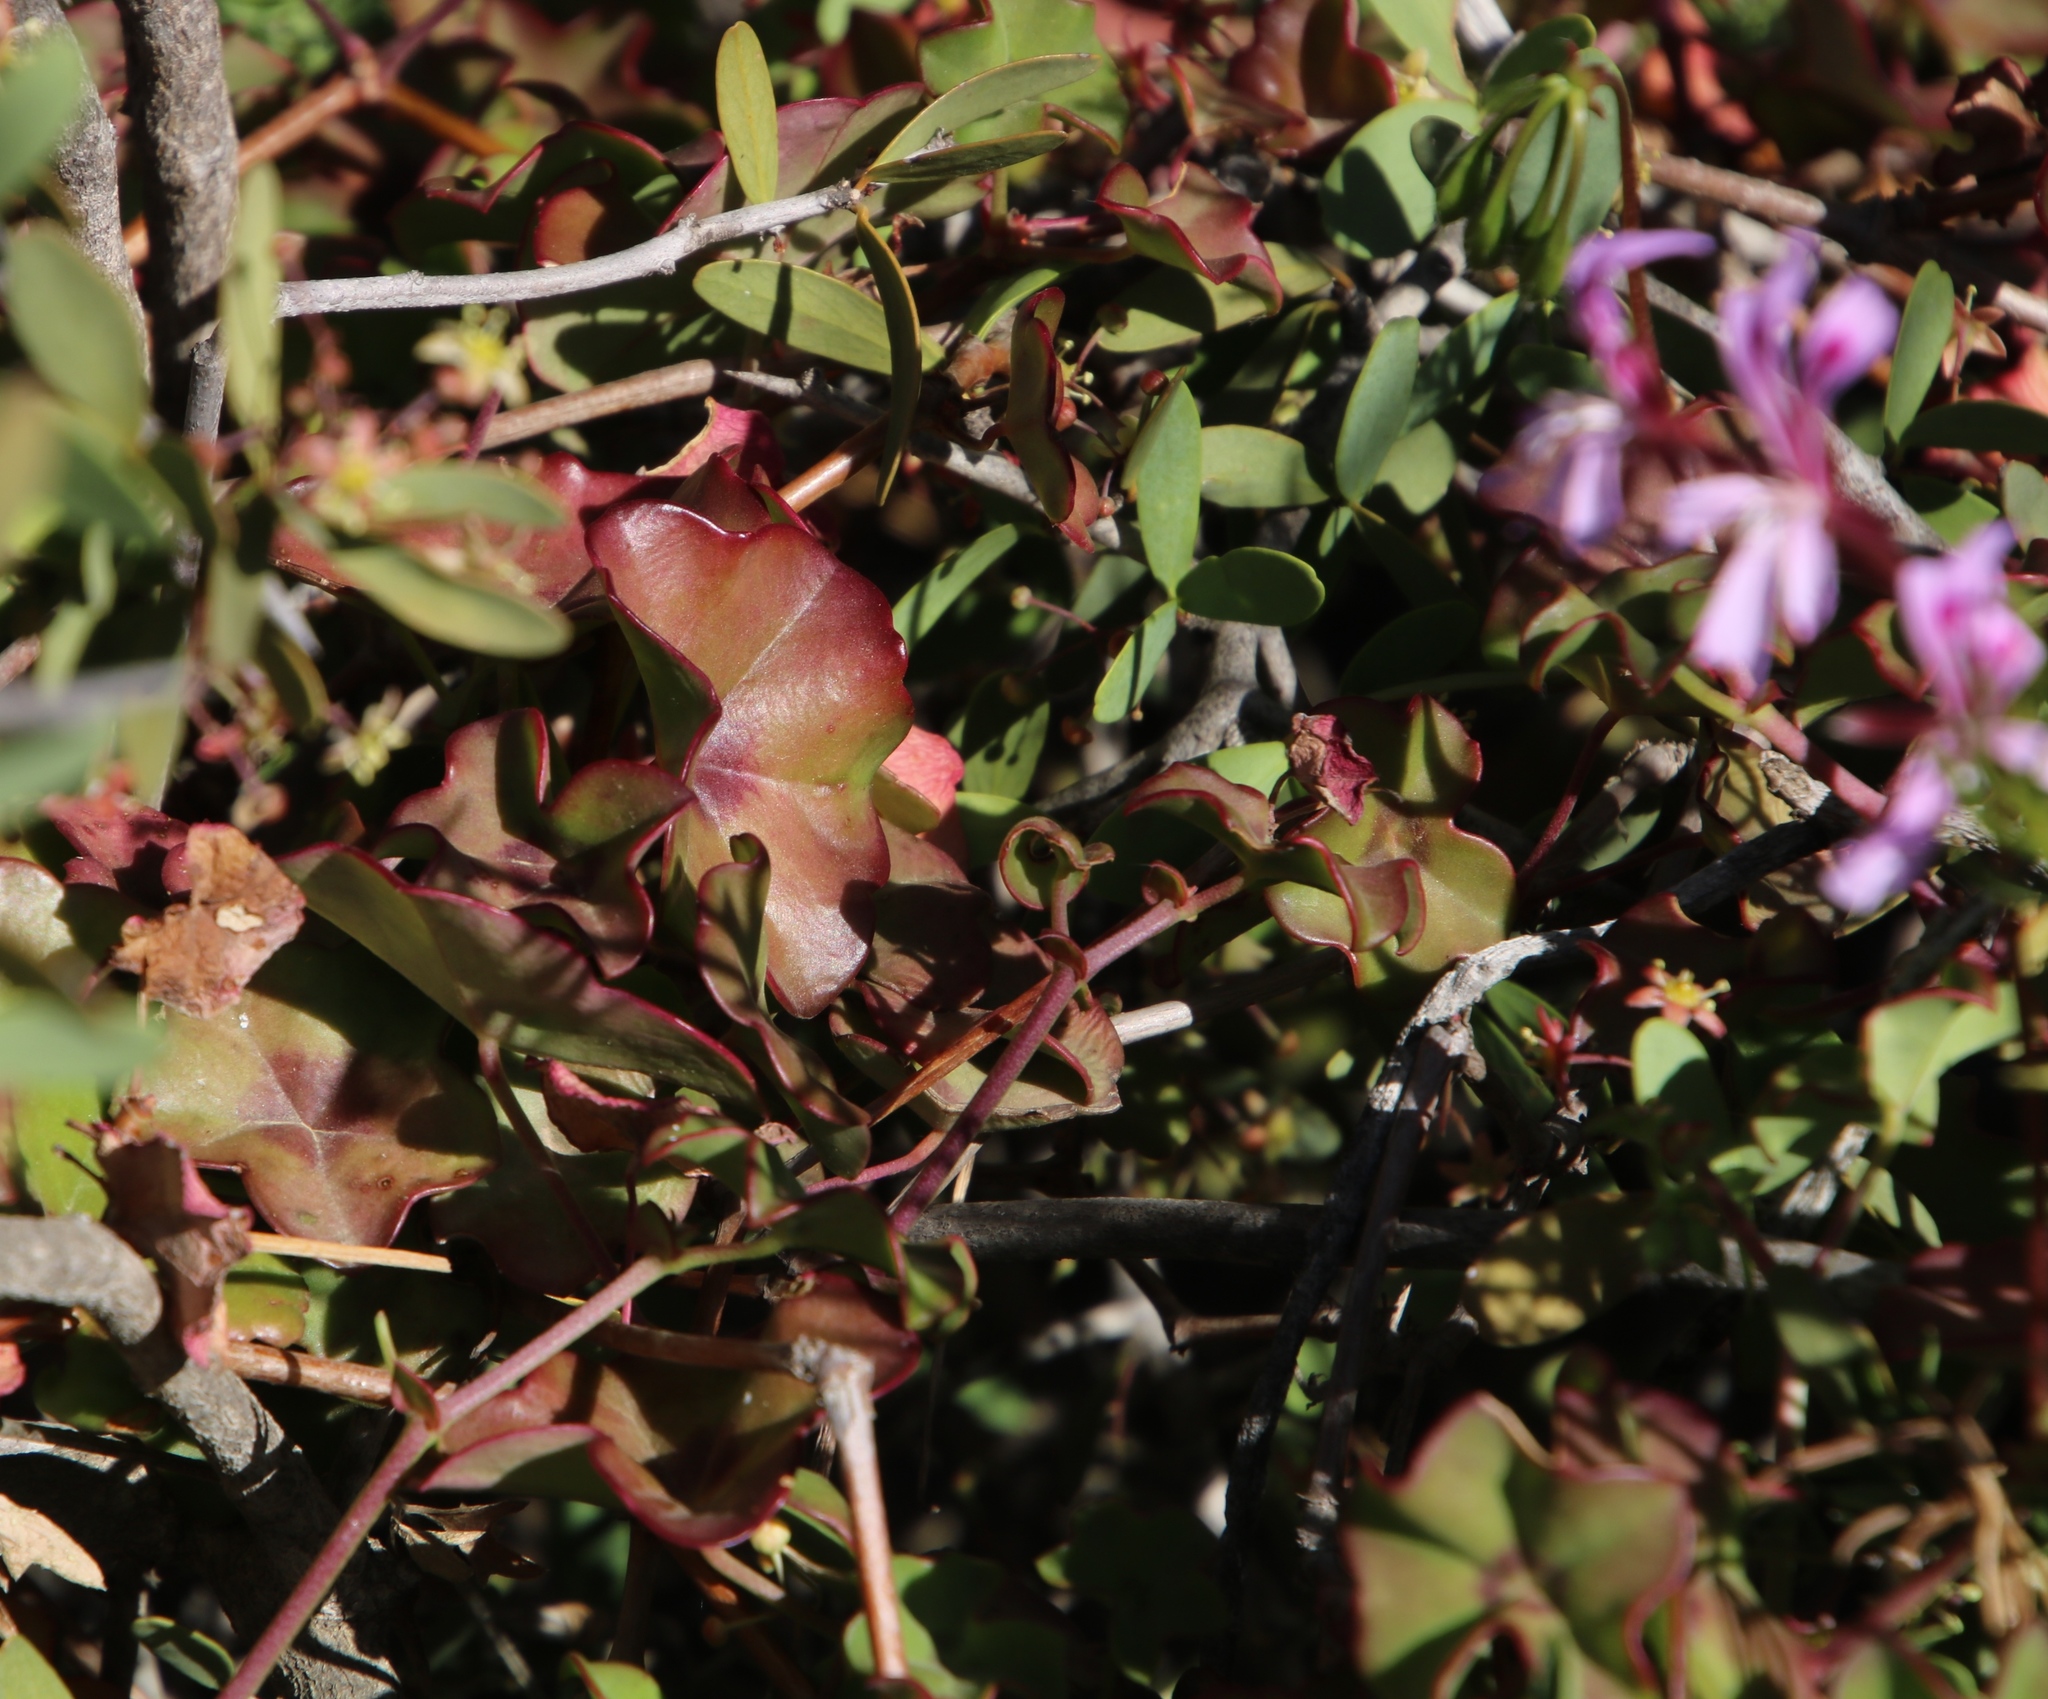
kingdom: Plantae
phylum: Tracheophyta
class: Magnoliopsida
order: Geraniales
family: Geraniaceae
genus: Pelargonium
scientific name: Pelargonium peltatum
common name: Ivyleaf geranium
